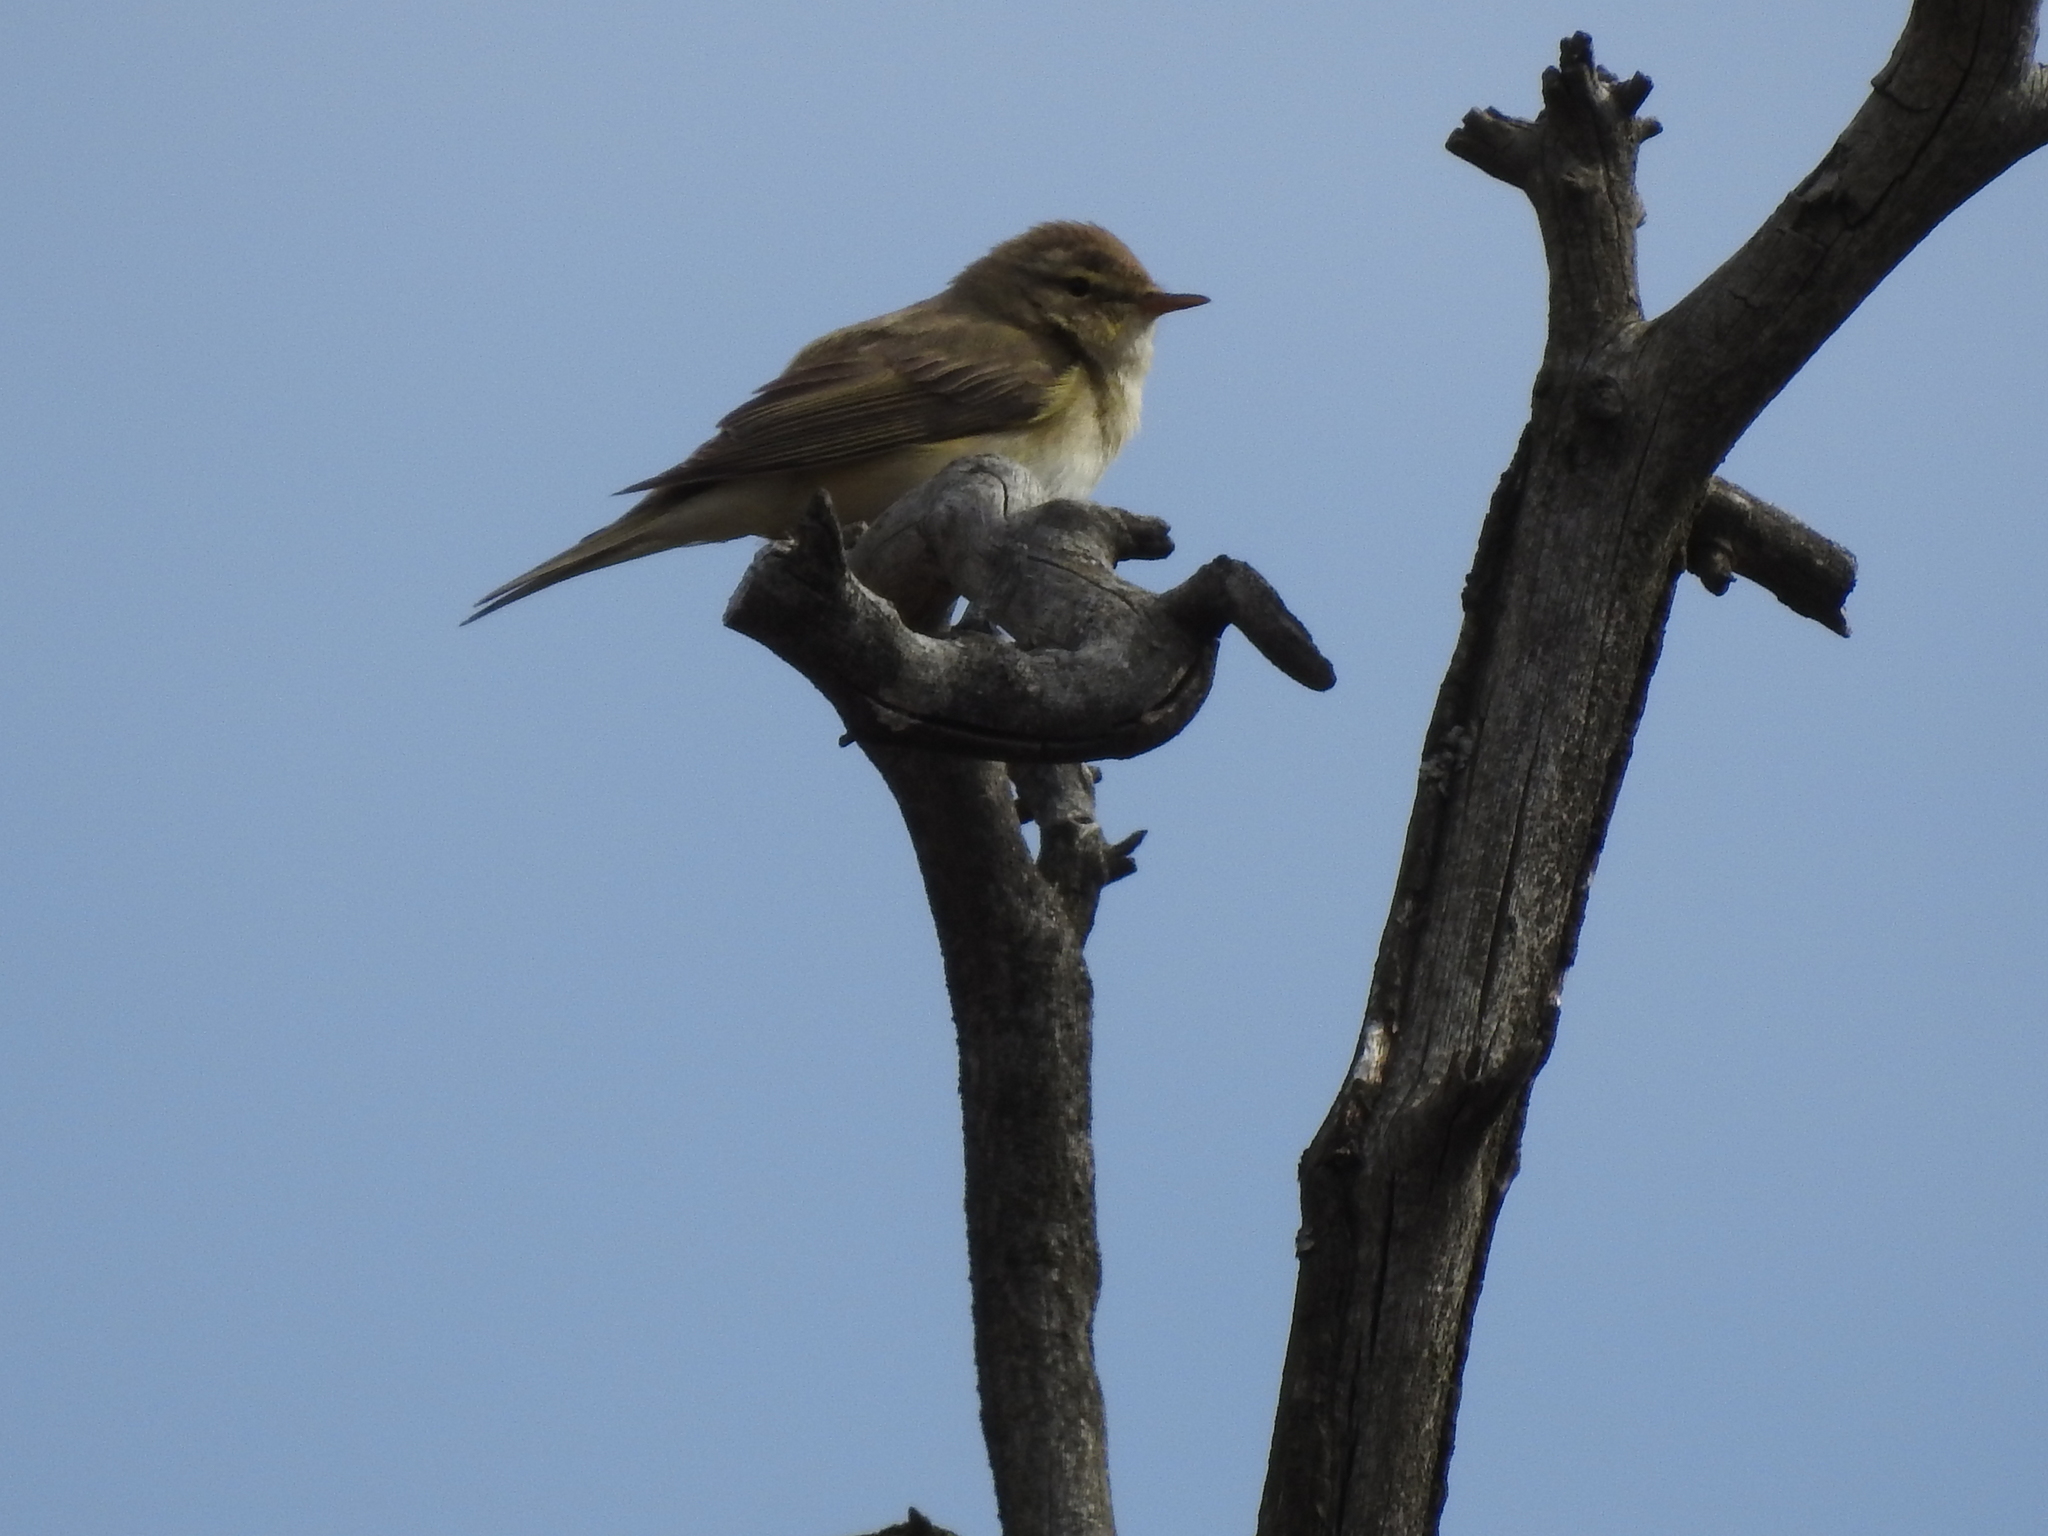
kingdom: Animalia
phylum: Chordata
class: Aves
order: Passeriformes
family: Phylloscopidae
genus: Phylloscopus
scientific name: Phylloscopus trochilus
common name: Willow warbler
